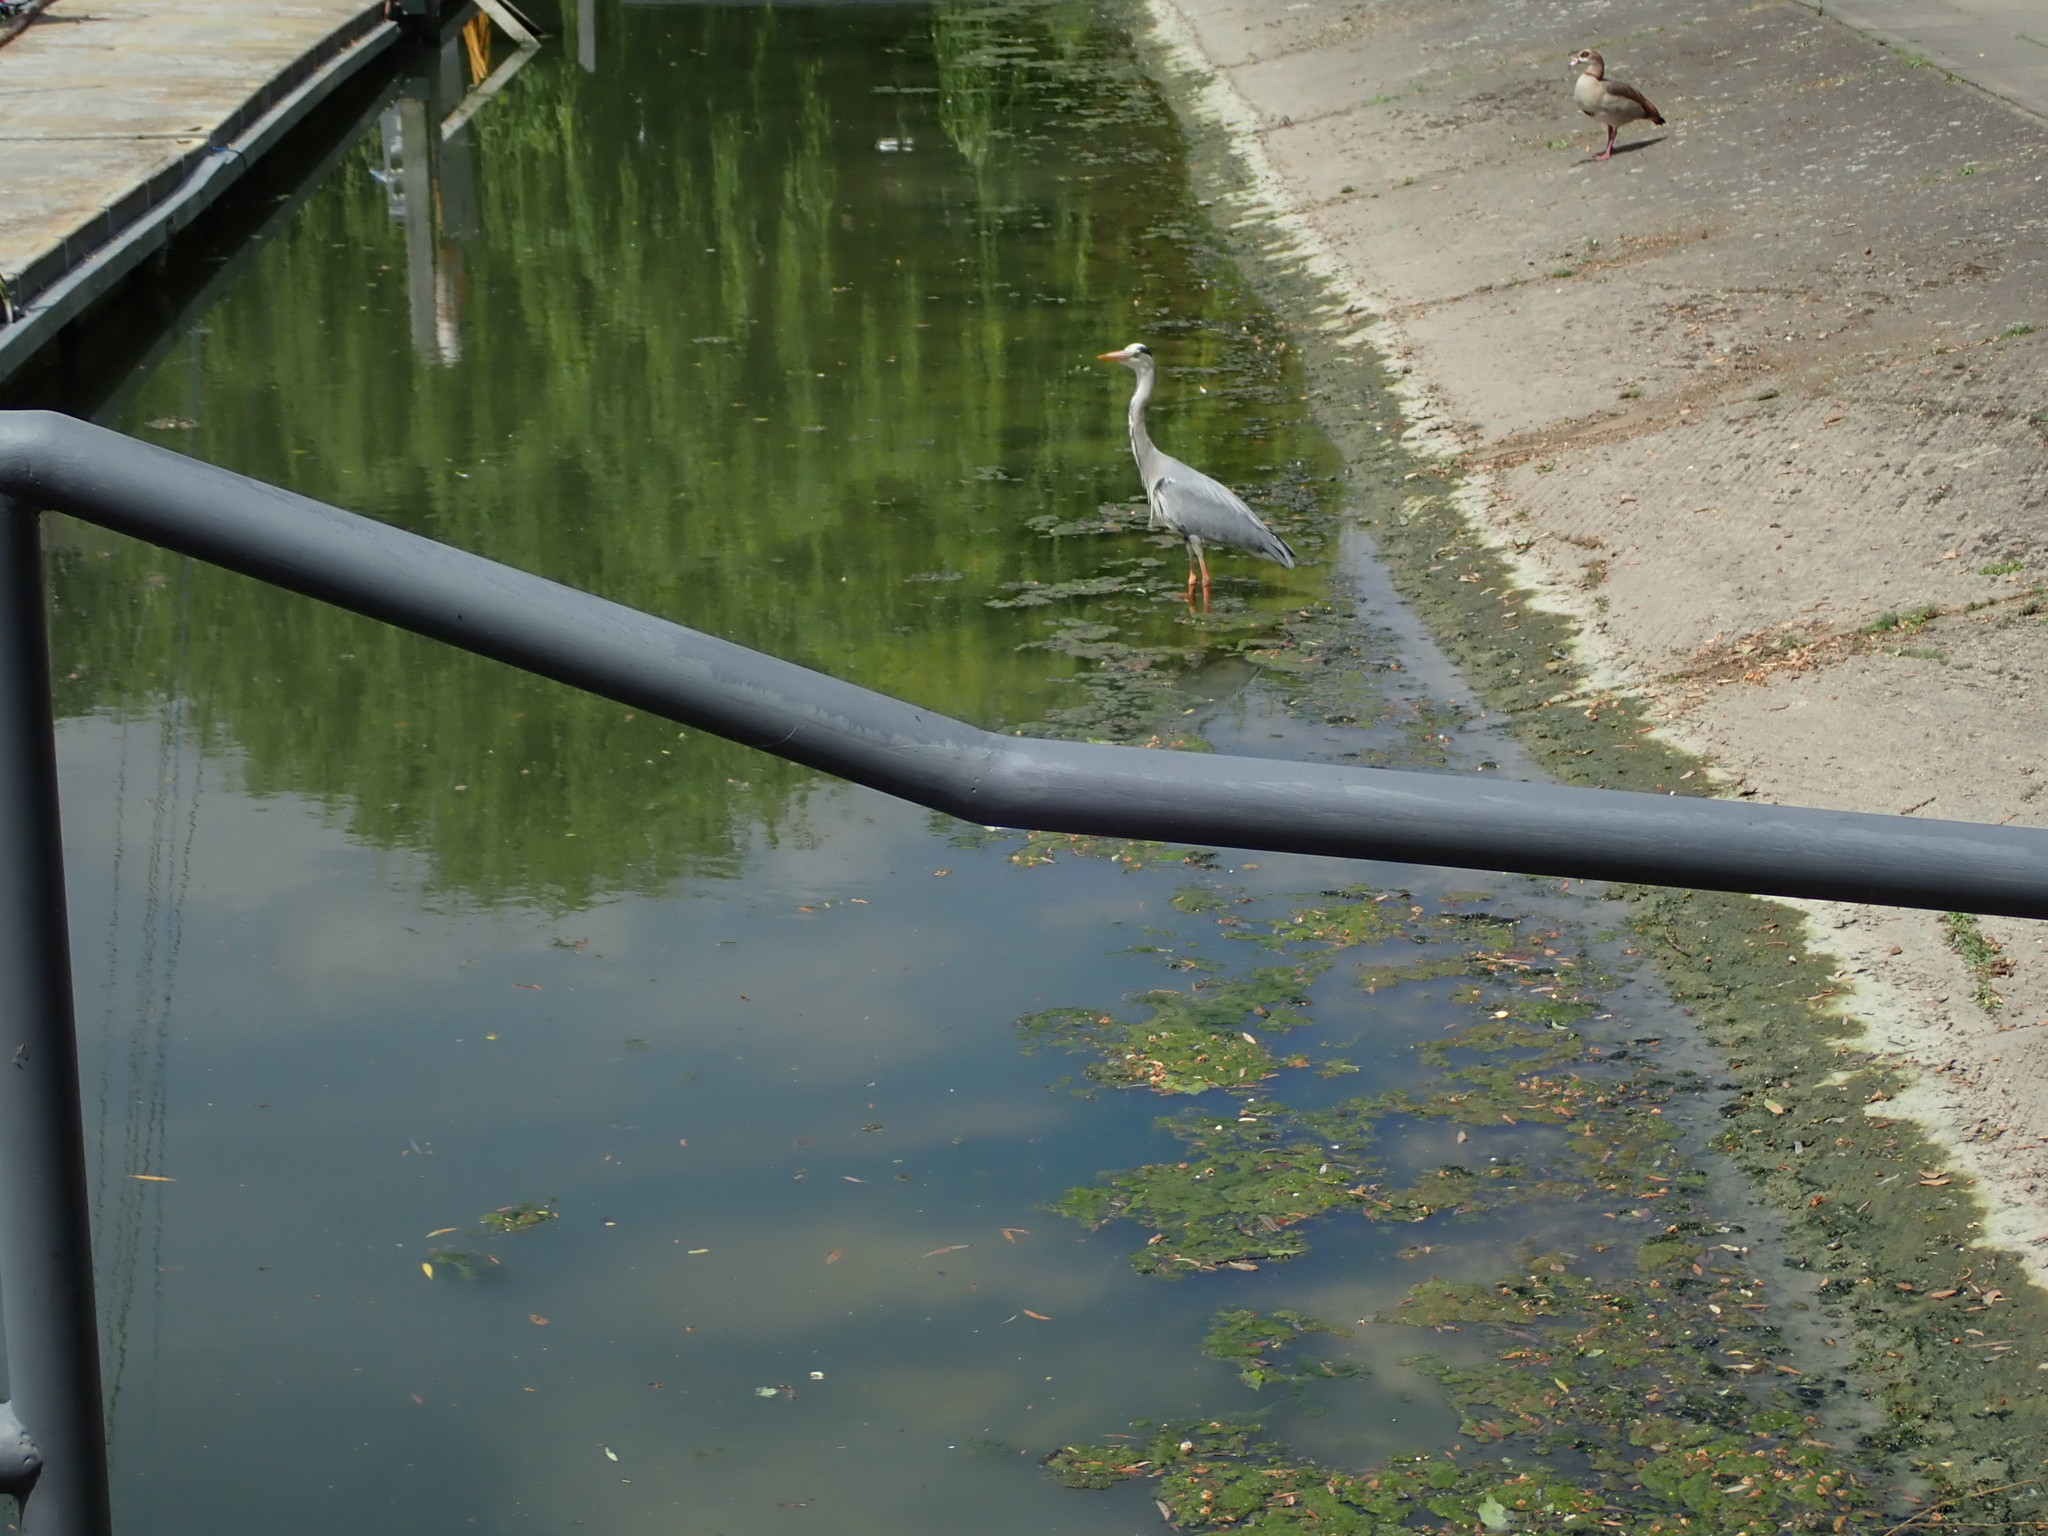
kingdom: Animalia
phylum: Chordata
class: Aves
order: Pelecaniformes
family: Ardeidae
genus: Ardea
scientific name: Ardea cinerea
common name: Grey heron
